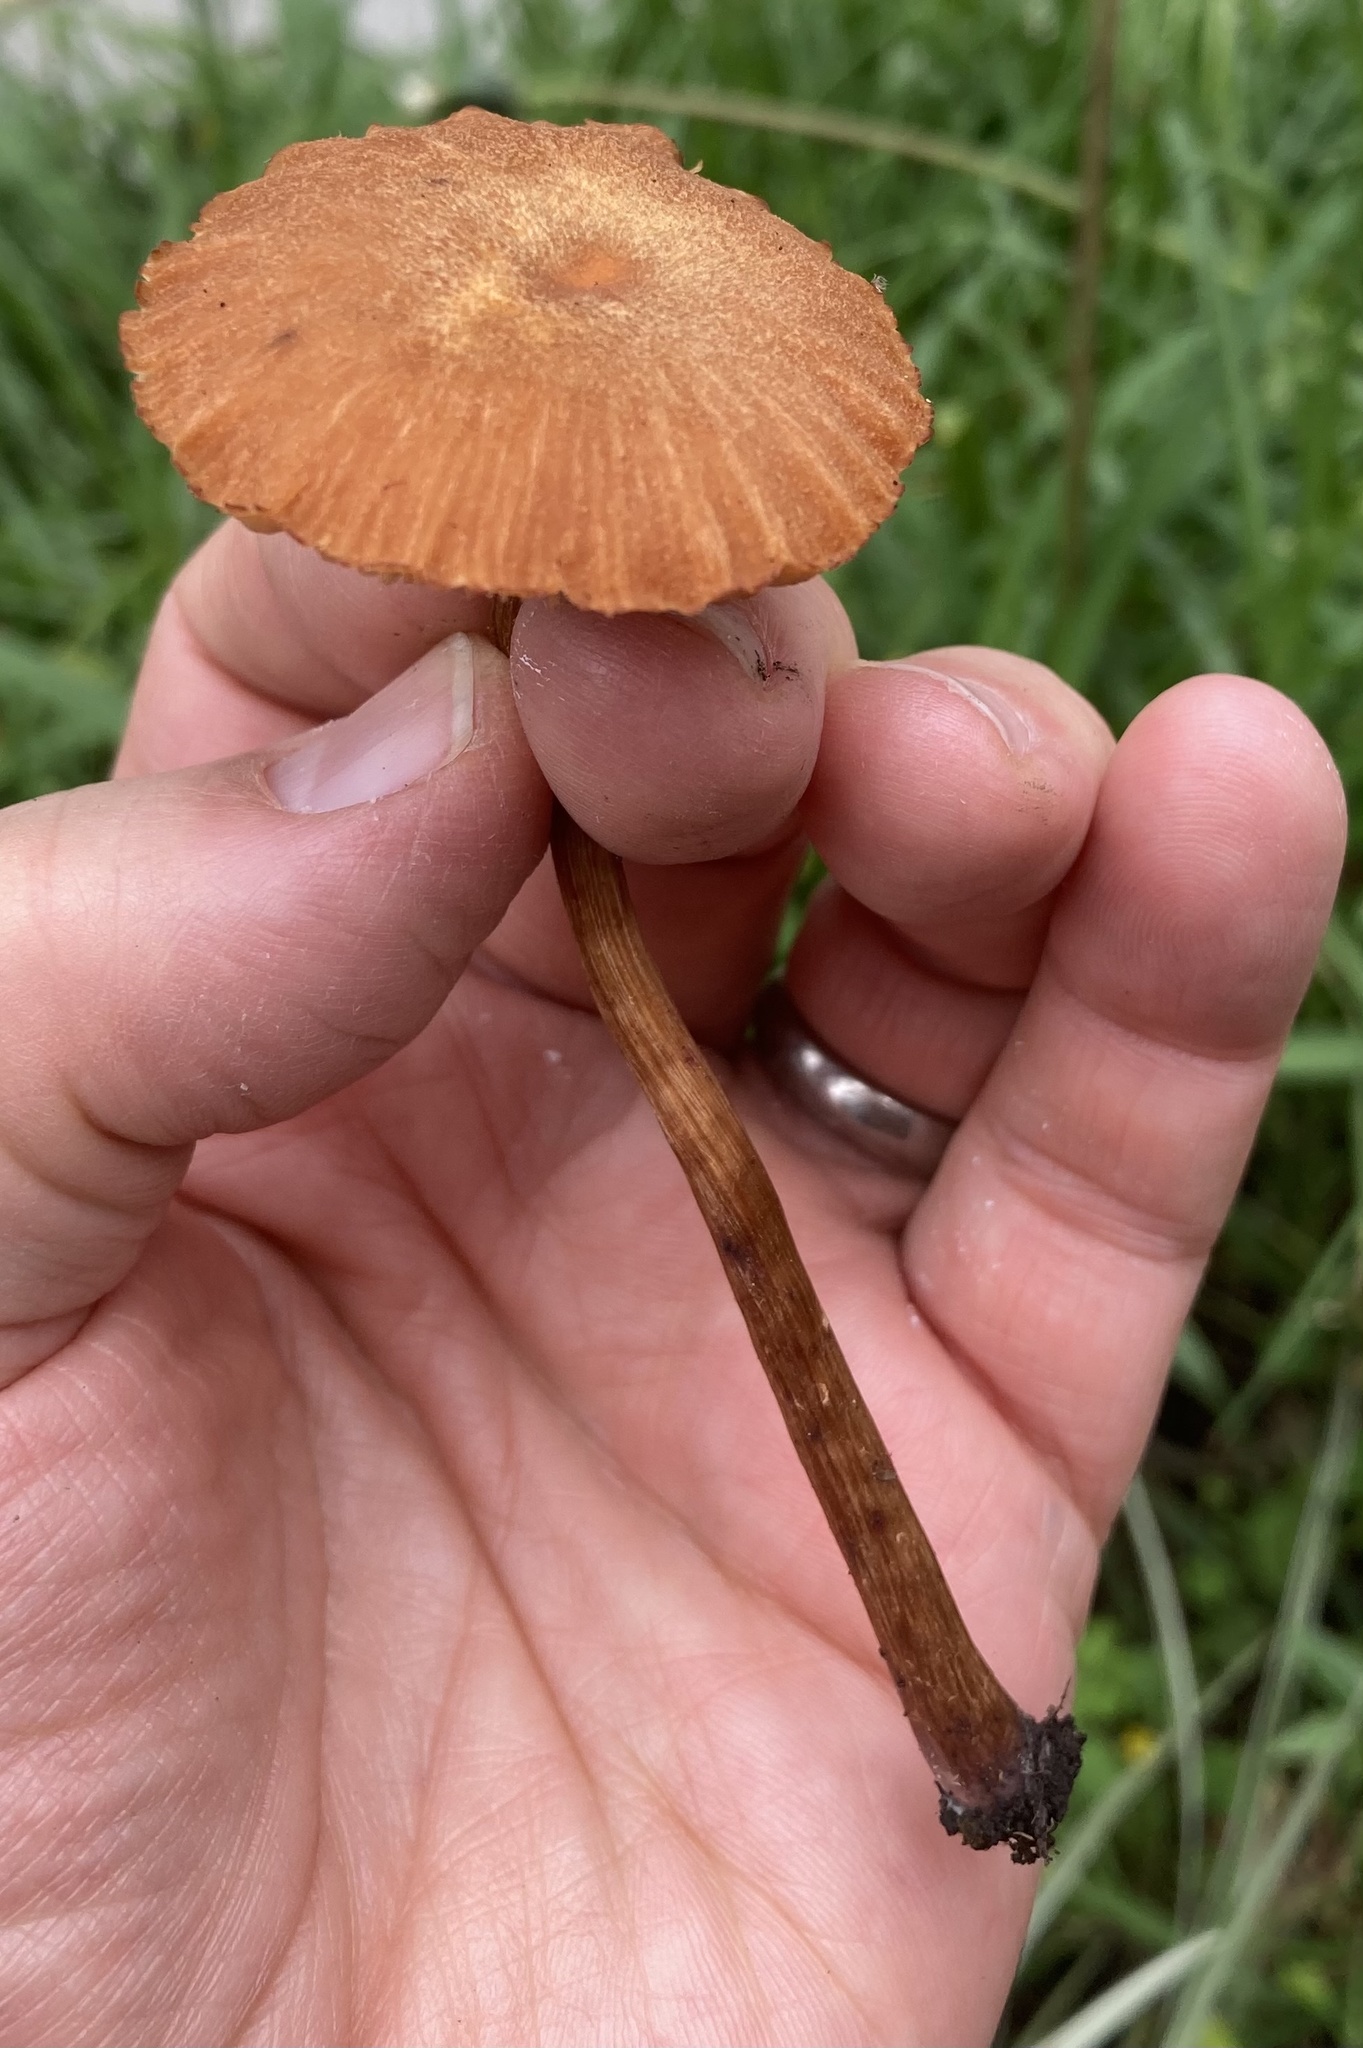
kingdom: Fungi
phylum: Basidiomycota
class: Agaricomycetes
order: Agaricales
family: Hydnangiaceae
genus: Laccaria
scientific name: Laccaria laccata
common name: Deceiver
